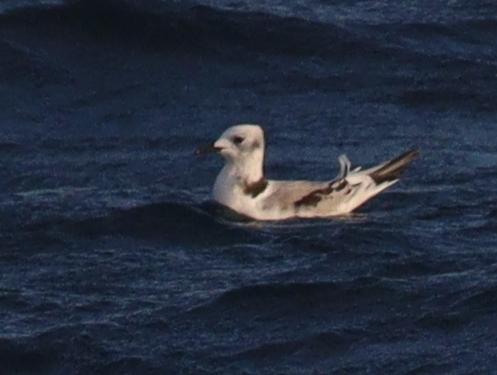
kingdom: Animalia
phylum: Chordata
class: Aves
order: Charadriiformes
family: Laridae
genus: Rissa
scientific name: Rissa tridactyla
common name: Black-legged kittiwake
